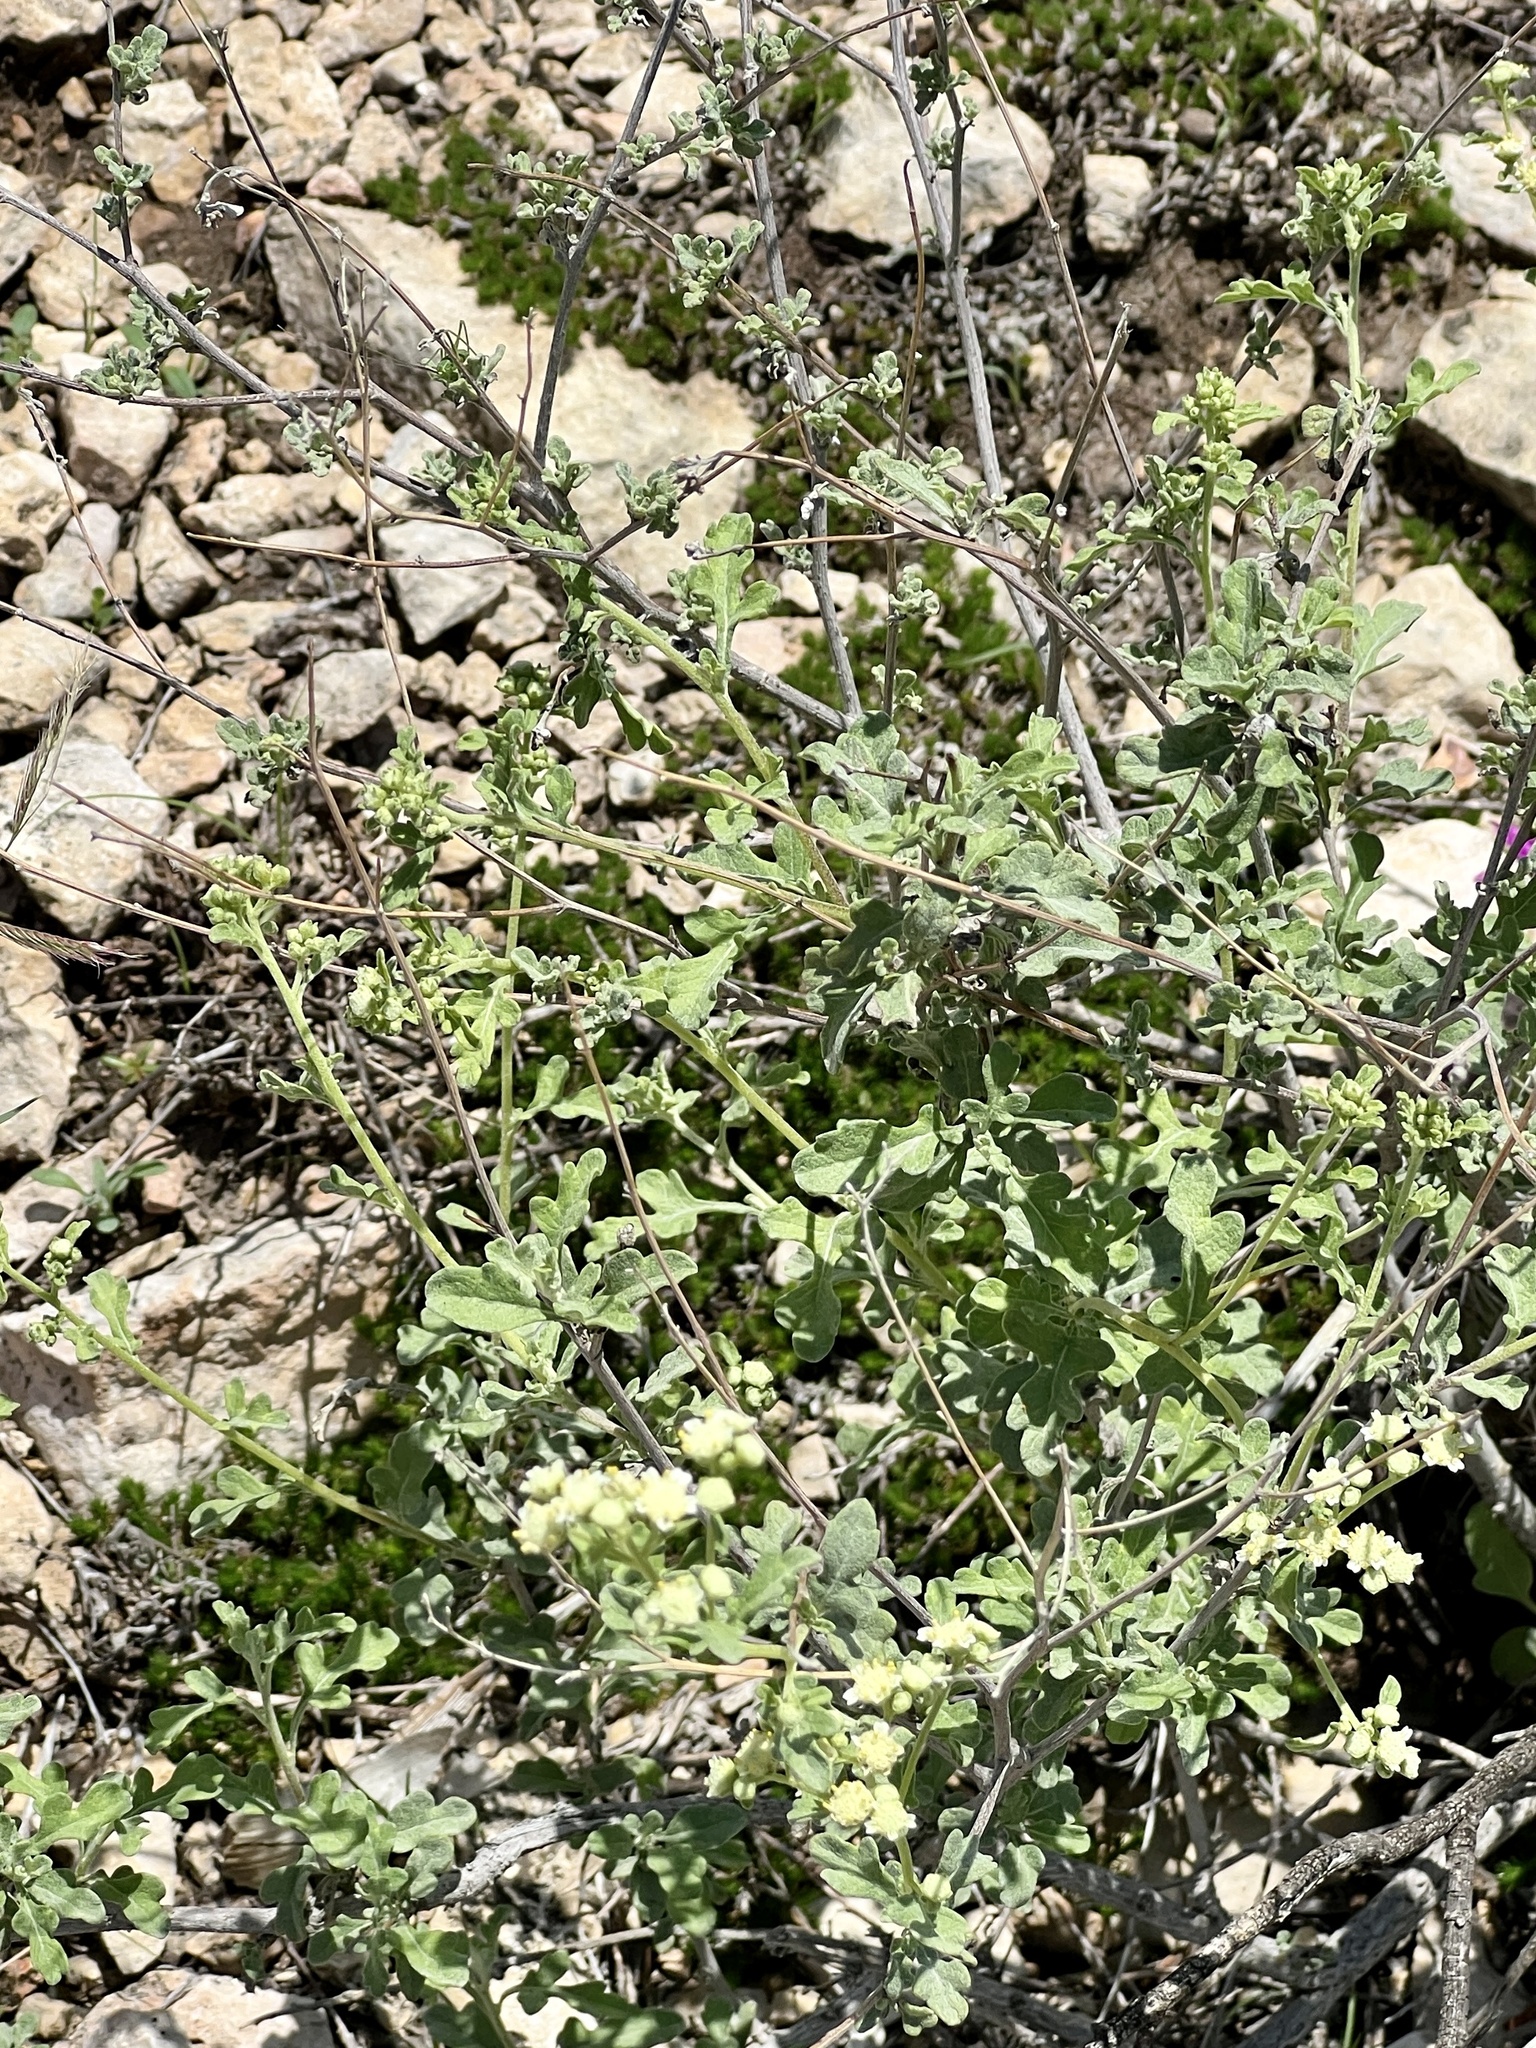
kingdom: Plantae
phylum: Tracheophyta
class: Magnoliopsida
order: Asterales
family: Asteraceae
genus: Parthenium
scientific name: Parthenium incanum
